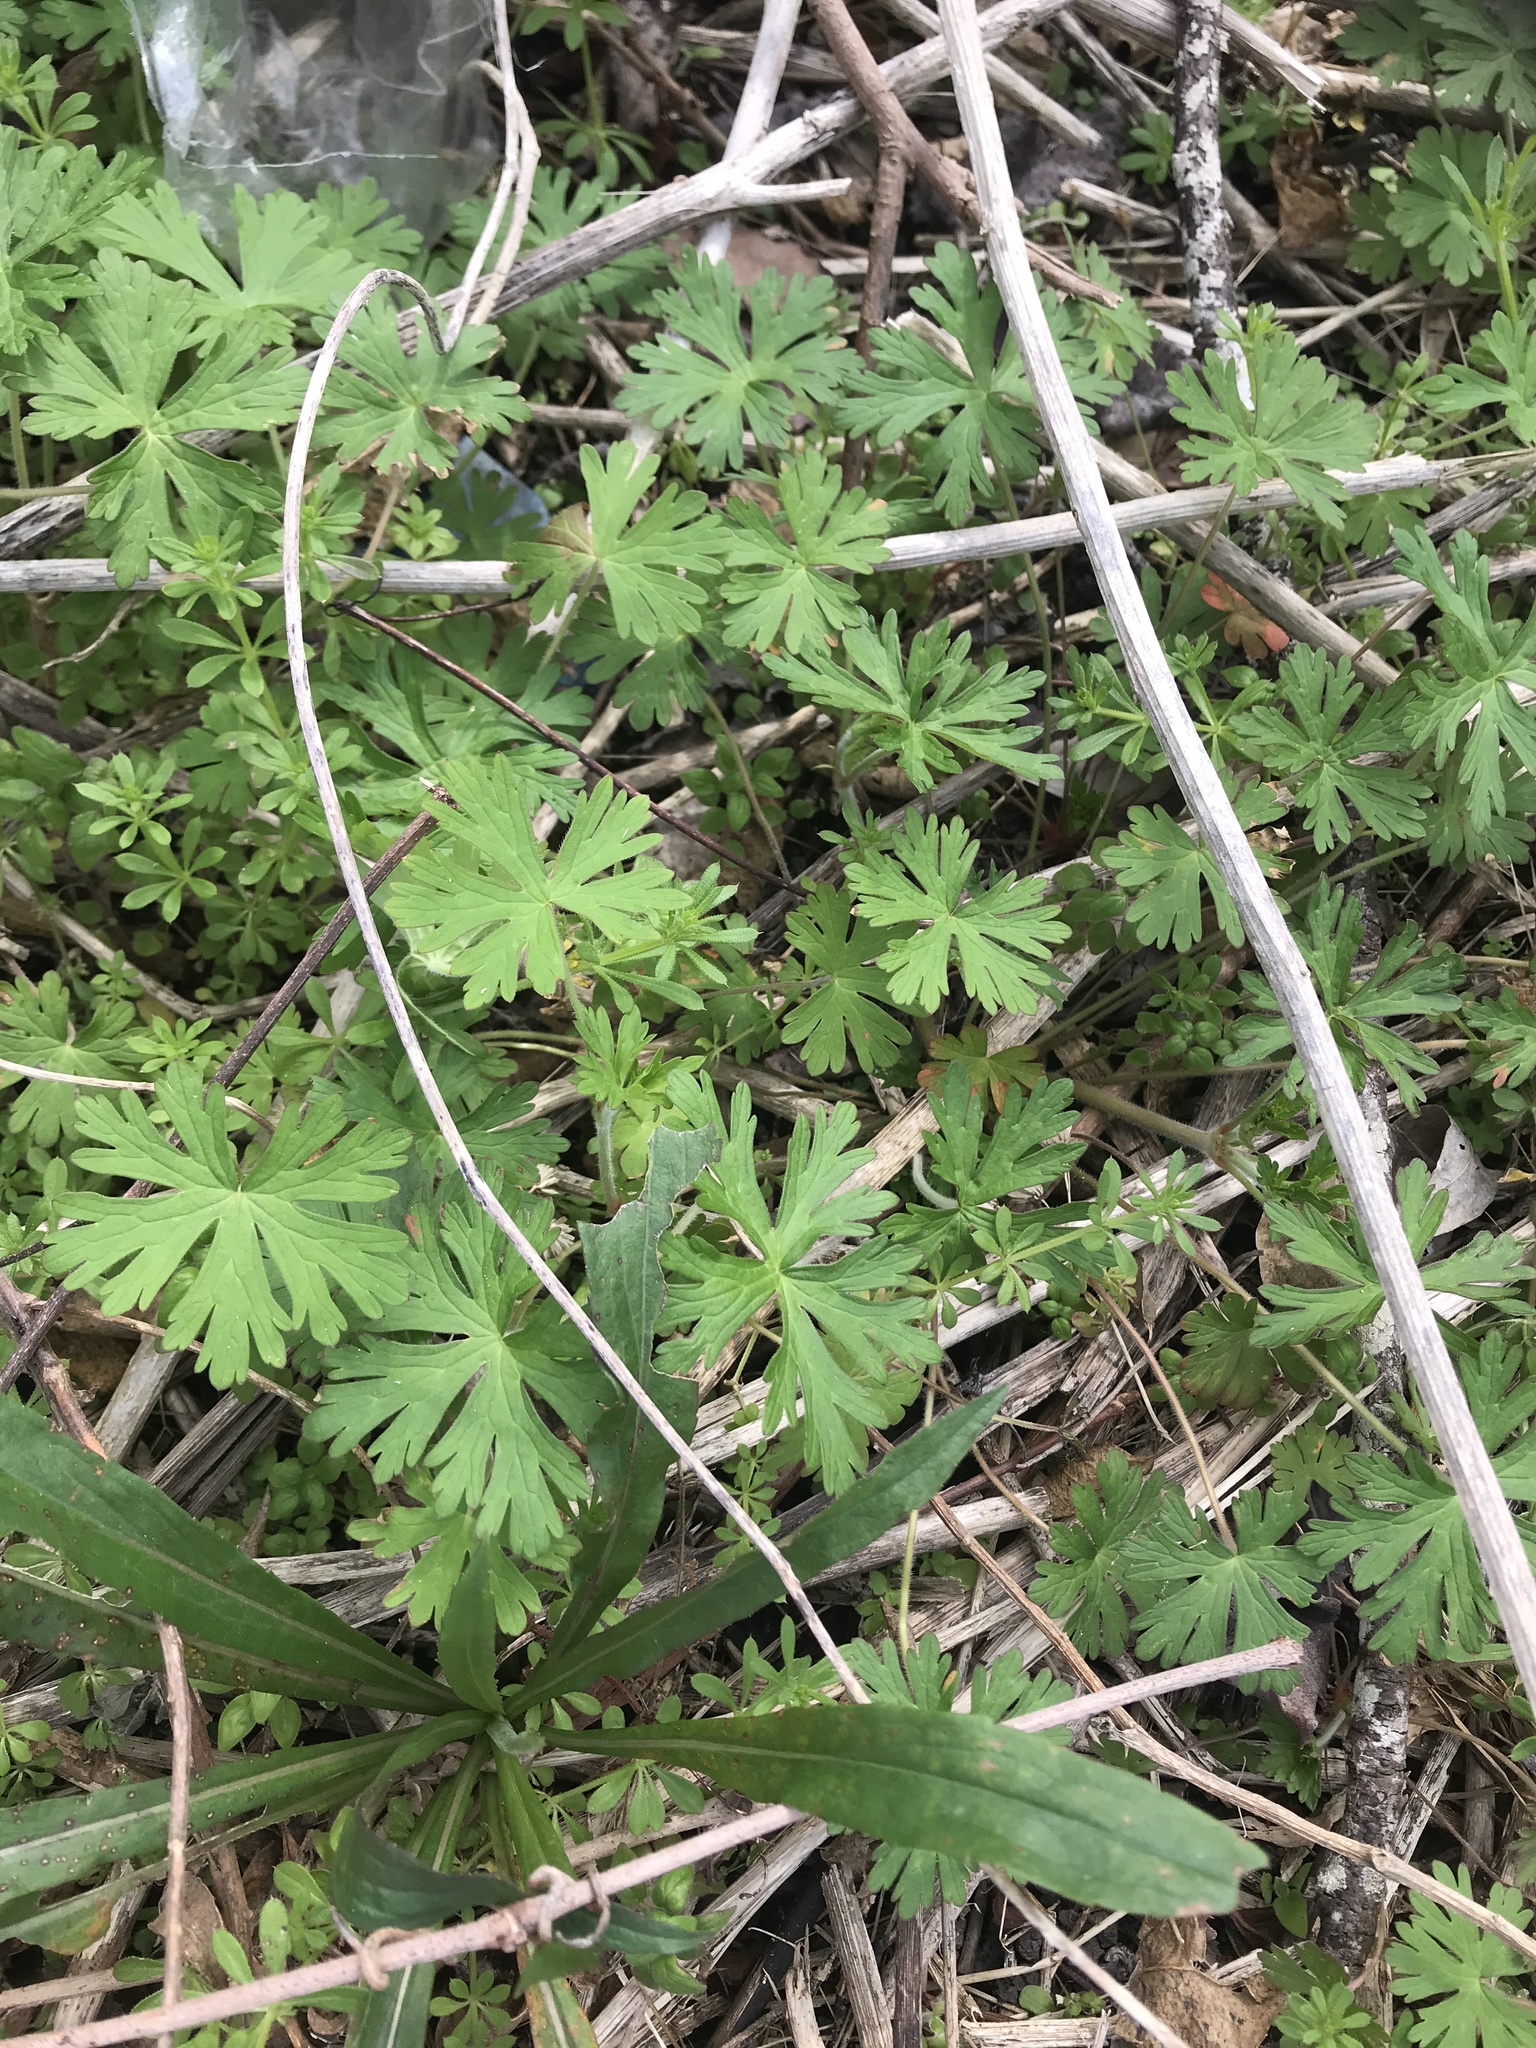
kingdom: Plantae
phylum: Tracheophyta
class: Magnoliopsida
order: Geraniales
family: Geraniaceae
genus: Geranium
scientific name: Geranium carolinianum
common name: Carolina crane's-bill
